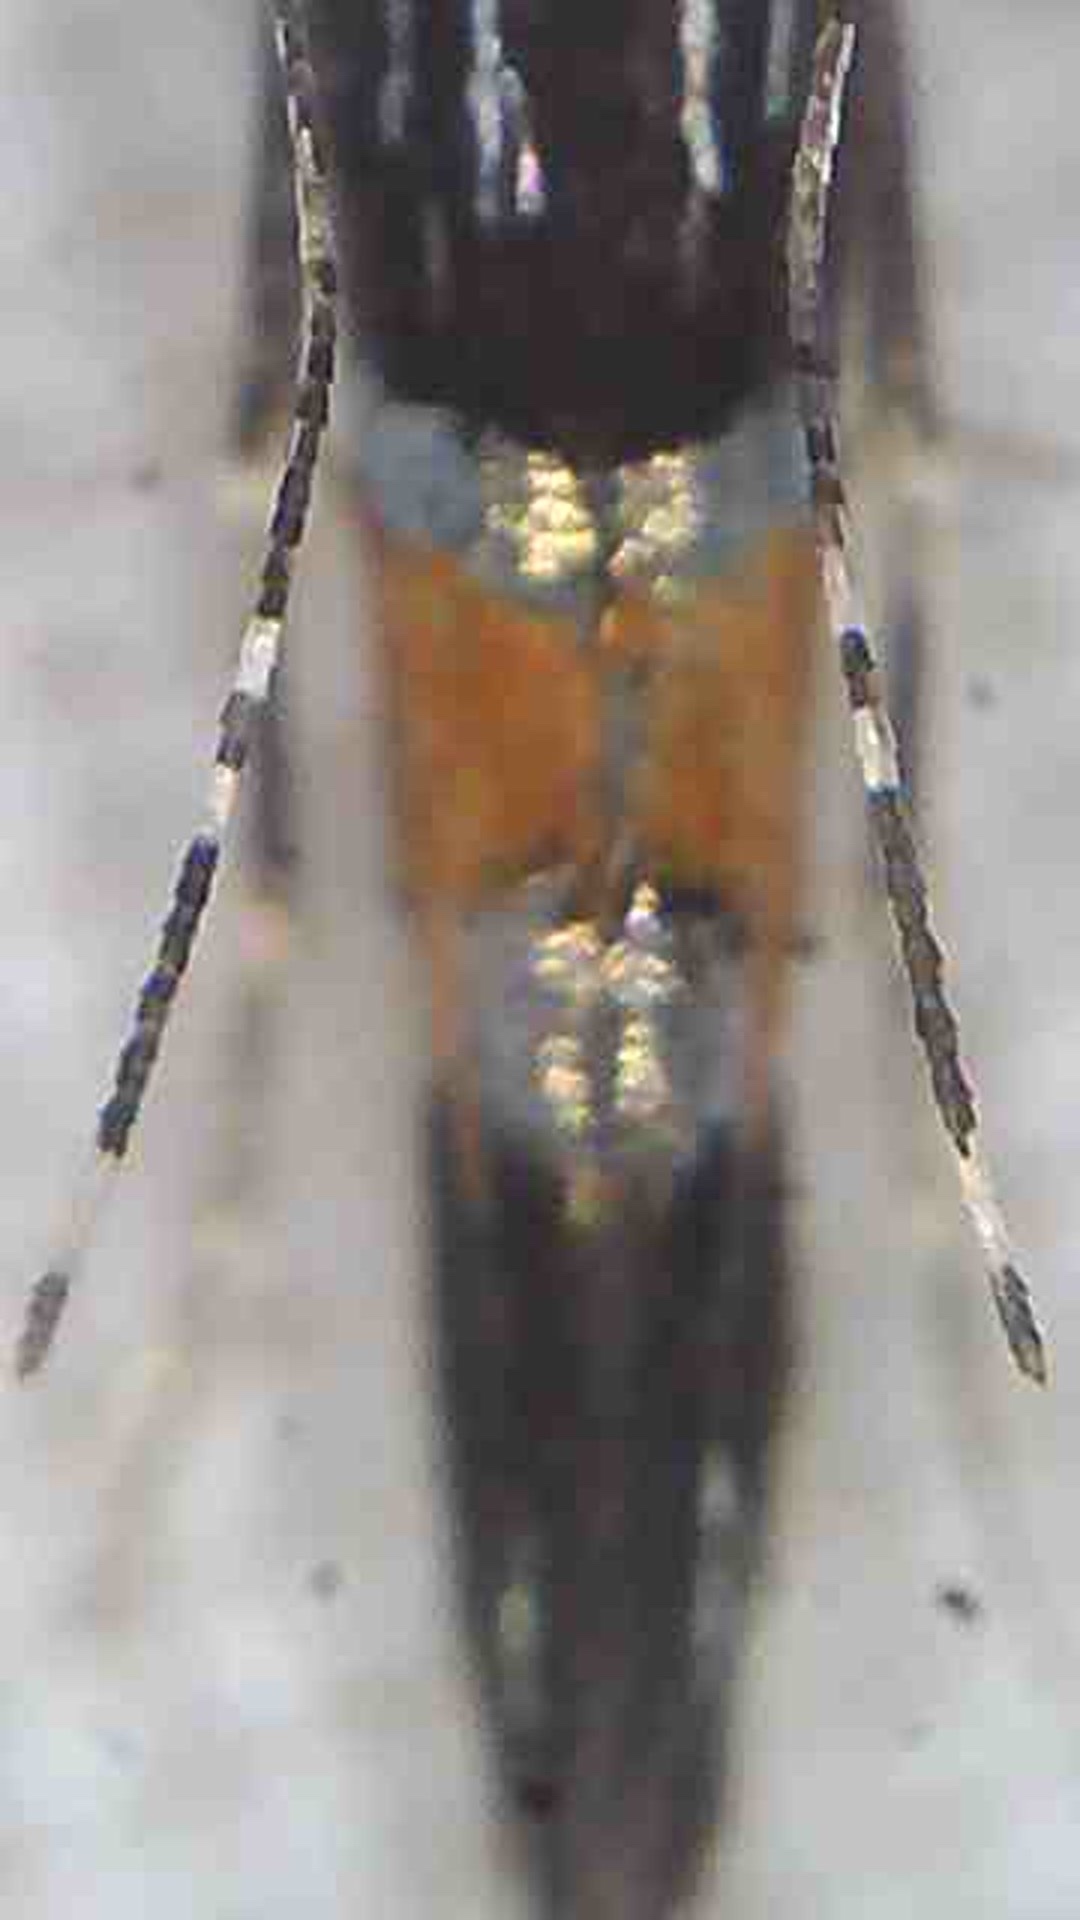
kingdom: Animalia
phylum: Arthropoda
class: Insecta
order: Lepidoptera
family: Cosmopterigidae
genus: Cosmopterix
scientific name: Cosmopterix attenuatella
